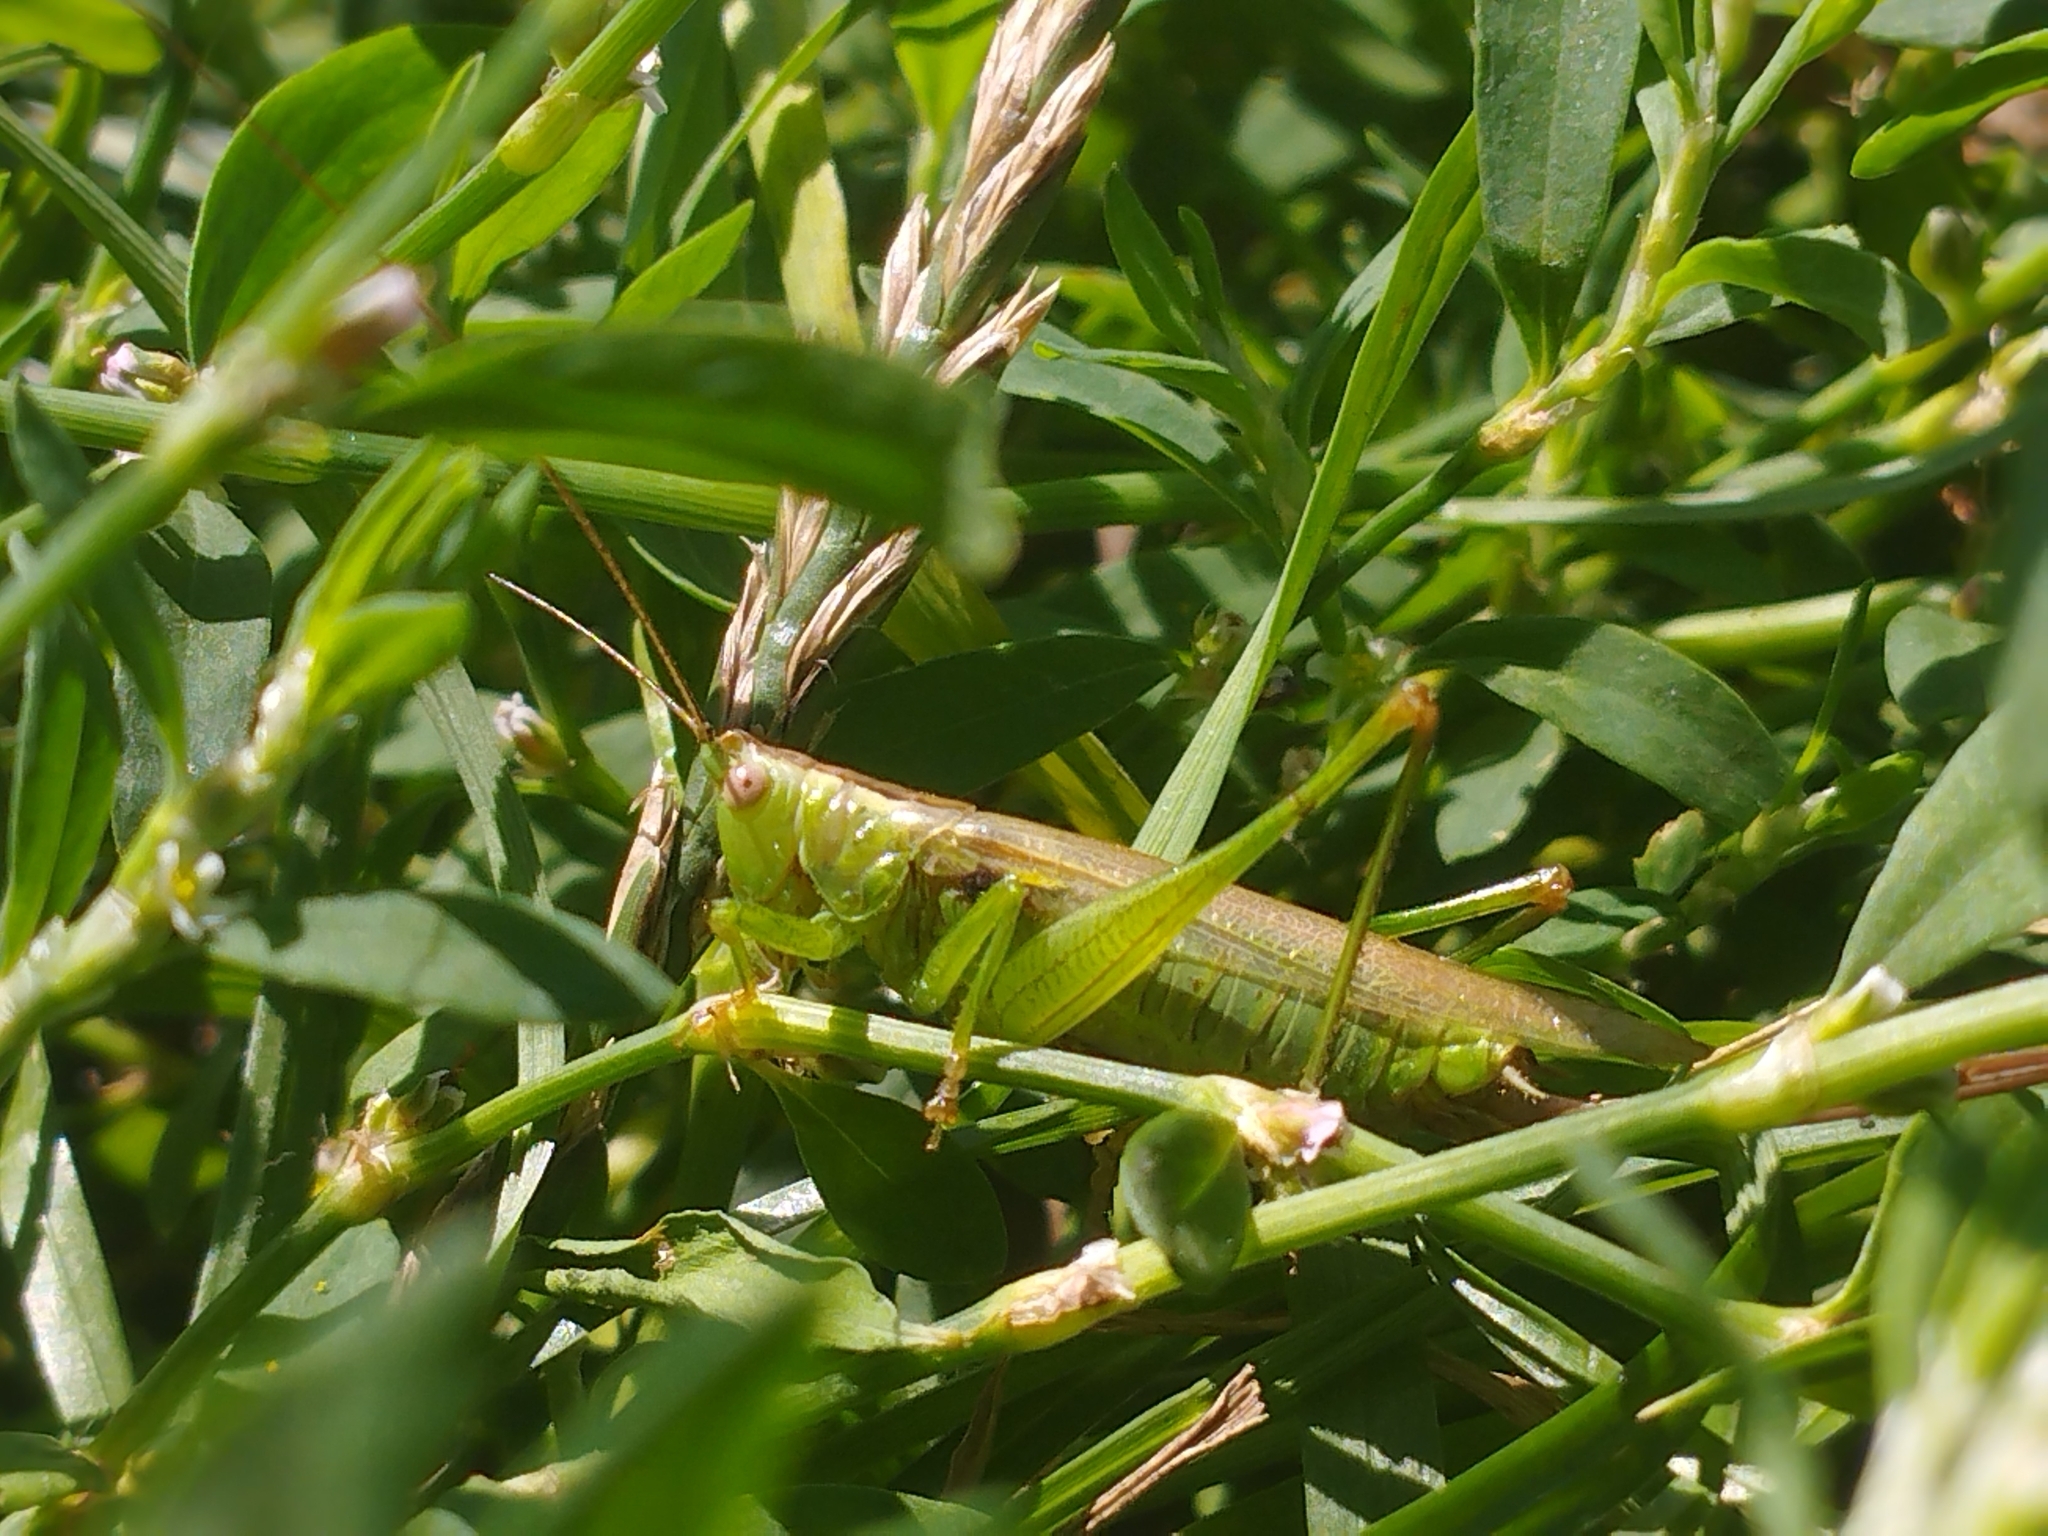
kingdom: Animalia
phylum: Arthropoda
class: Insecta
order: Orthoptera
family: Tettigoniidae
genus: Conocephalus
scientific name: Conocephalus fuscus
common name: Long-winged conehead
